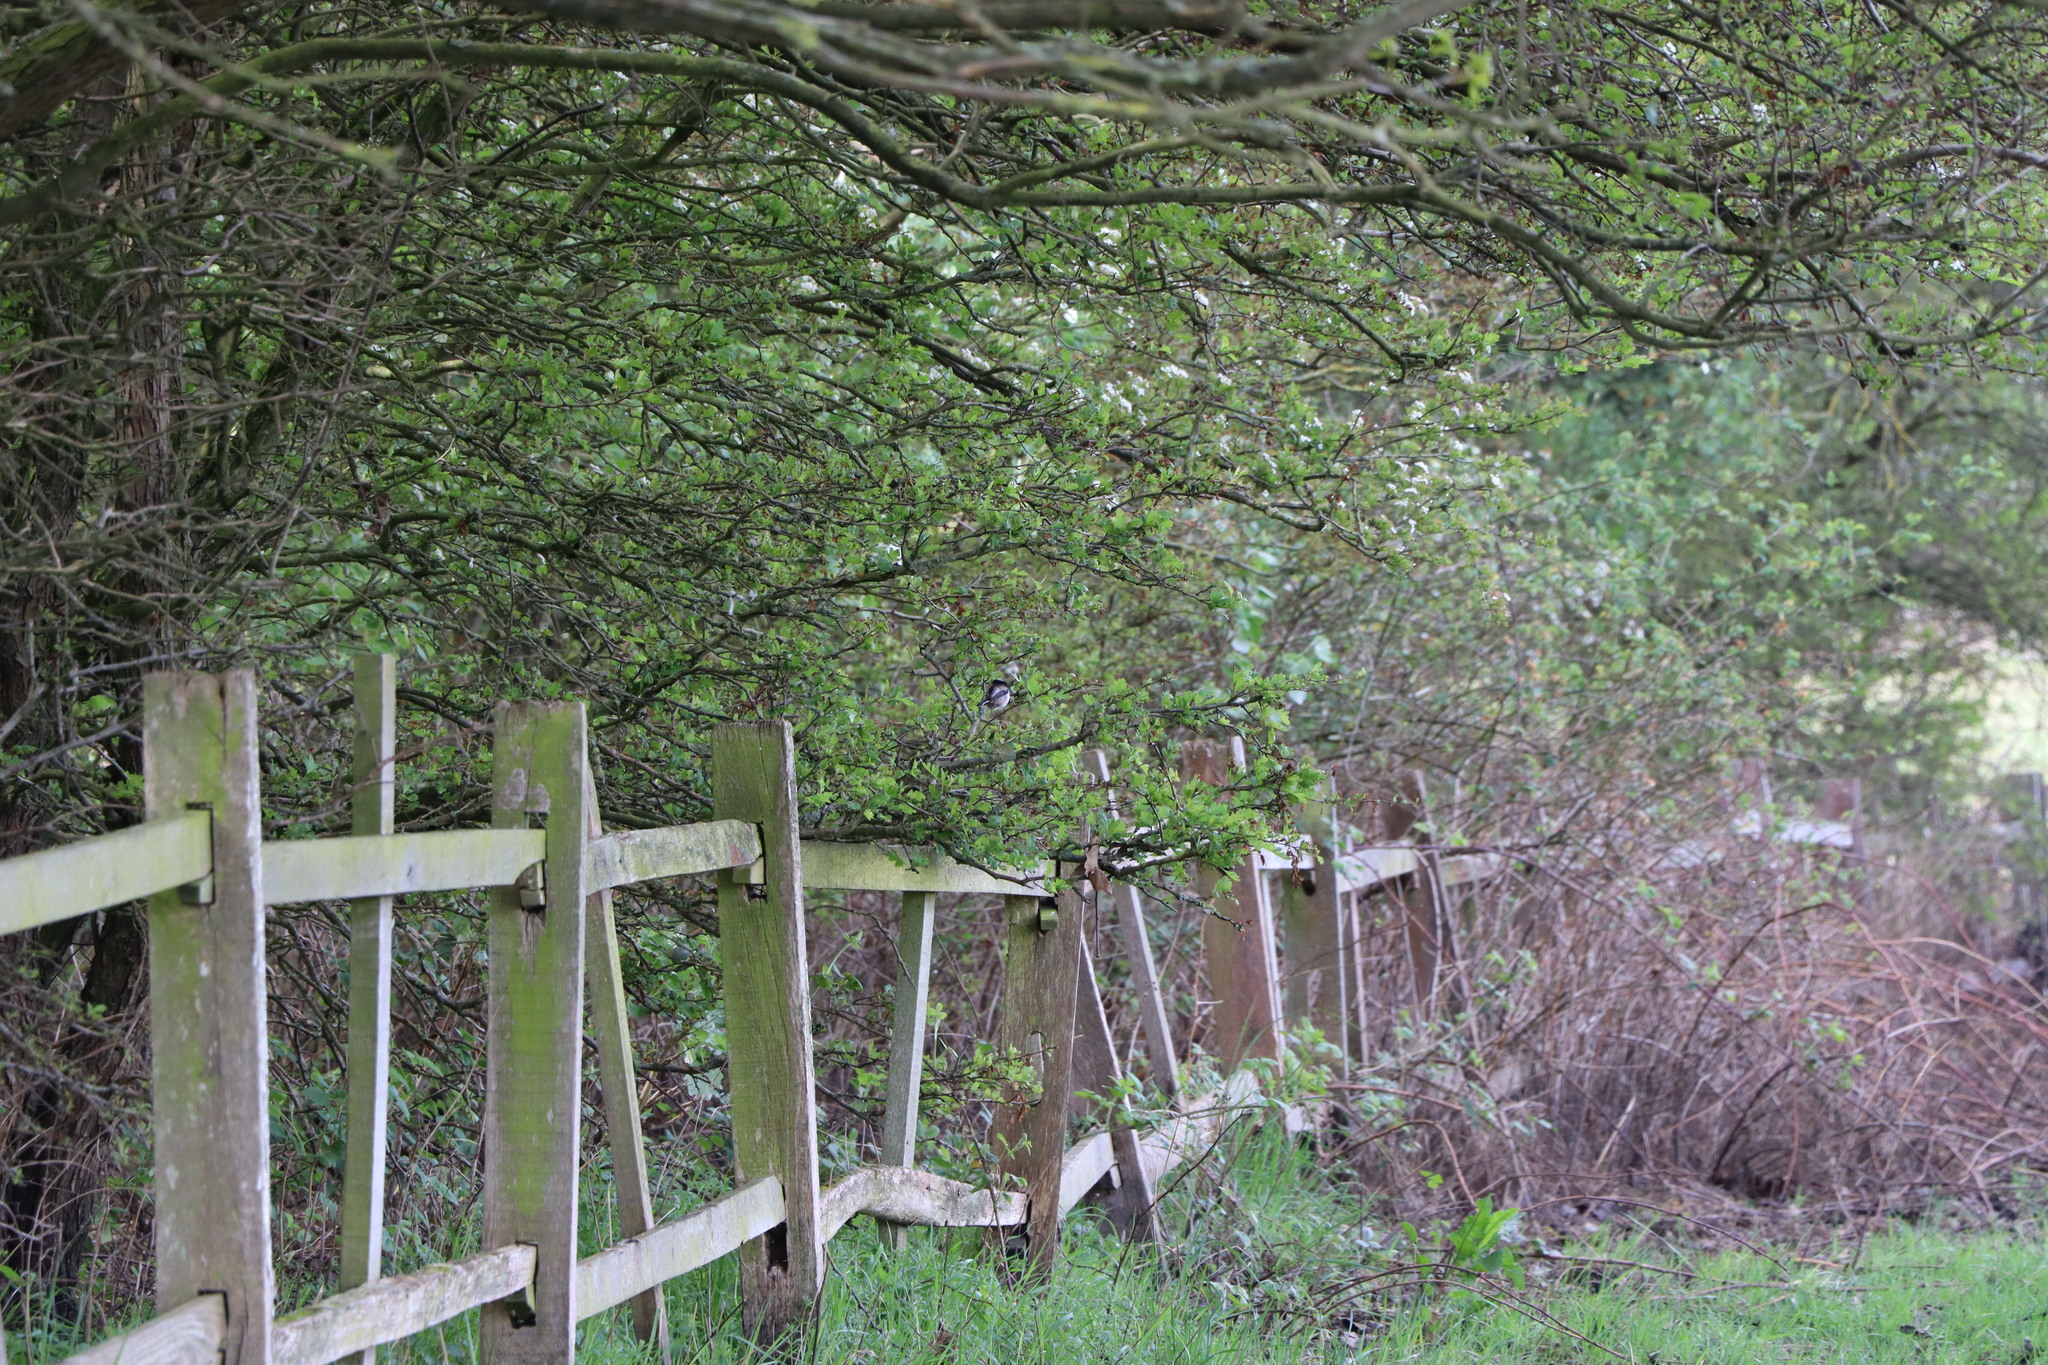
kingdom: Animalia
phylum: Chordata
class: Aves
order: Passeriformes
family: Aegithalidae
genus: Aegithalos
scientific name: Aegithalos caudatus
